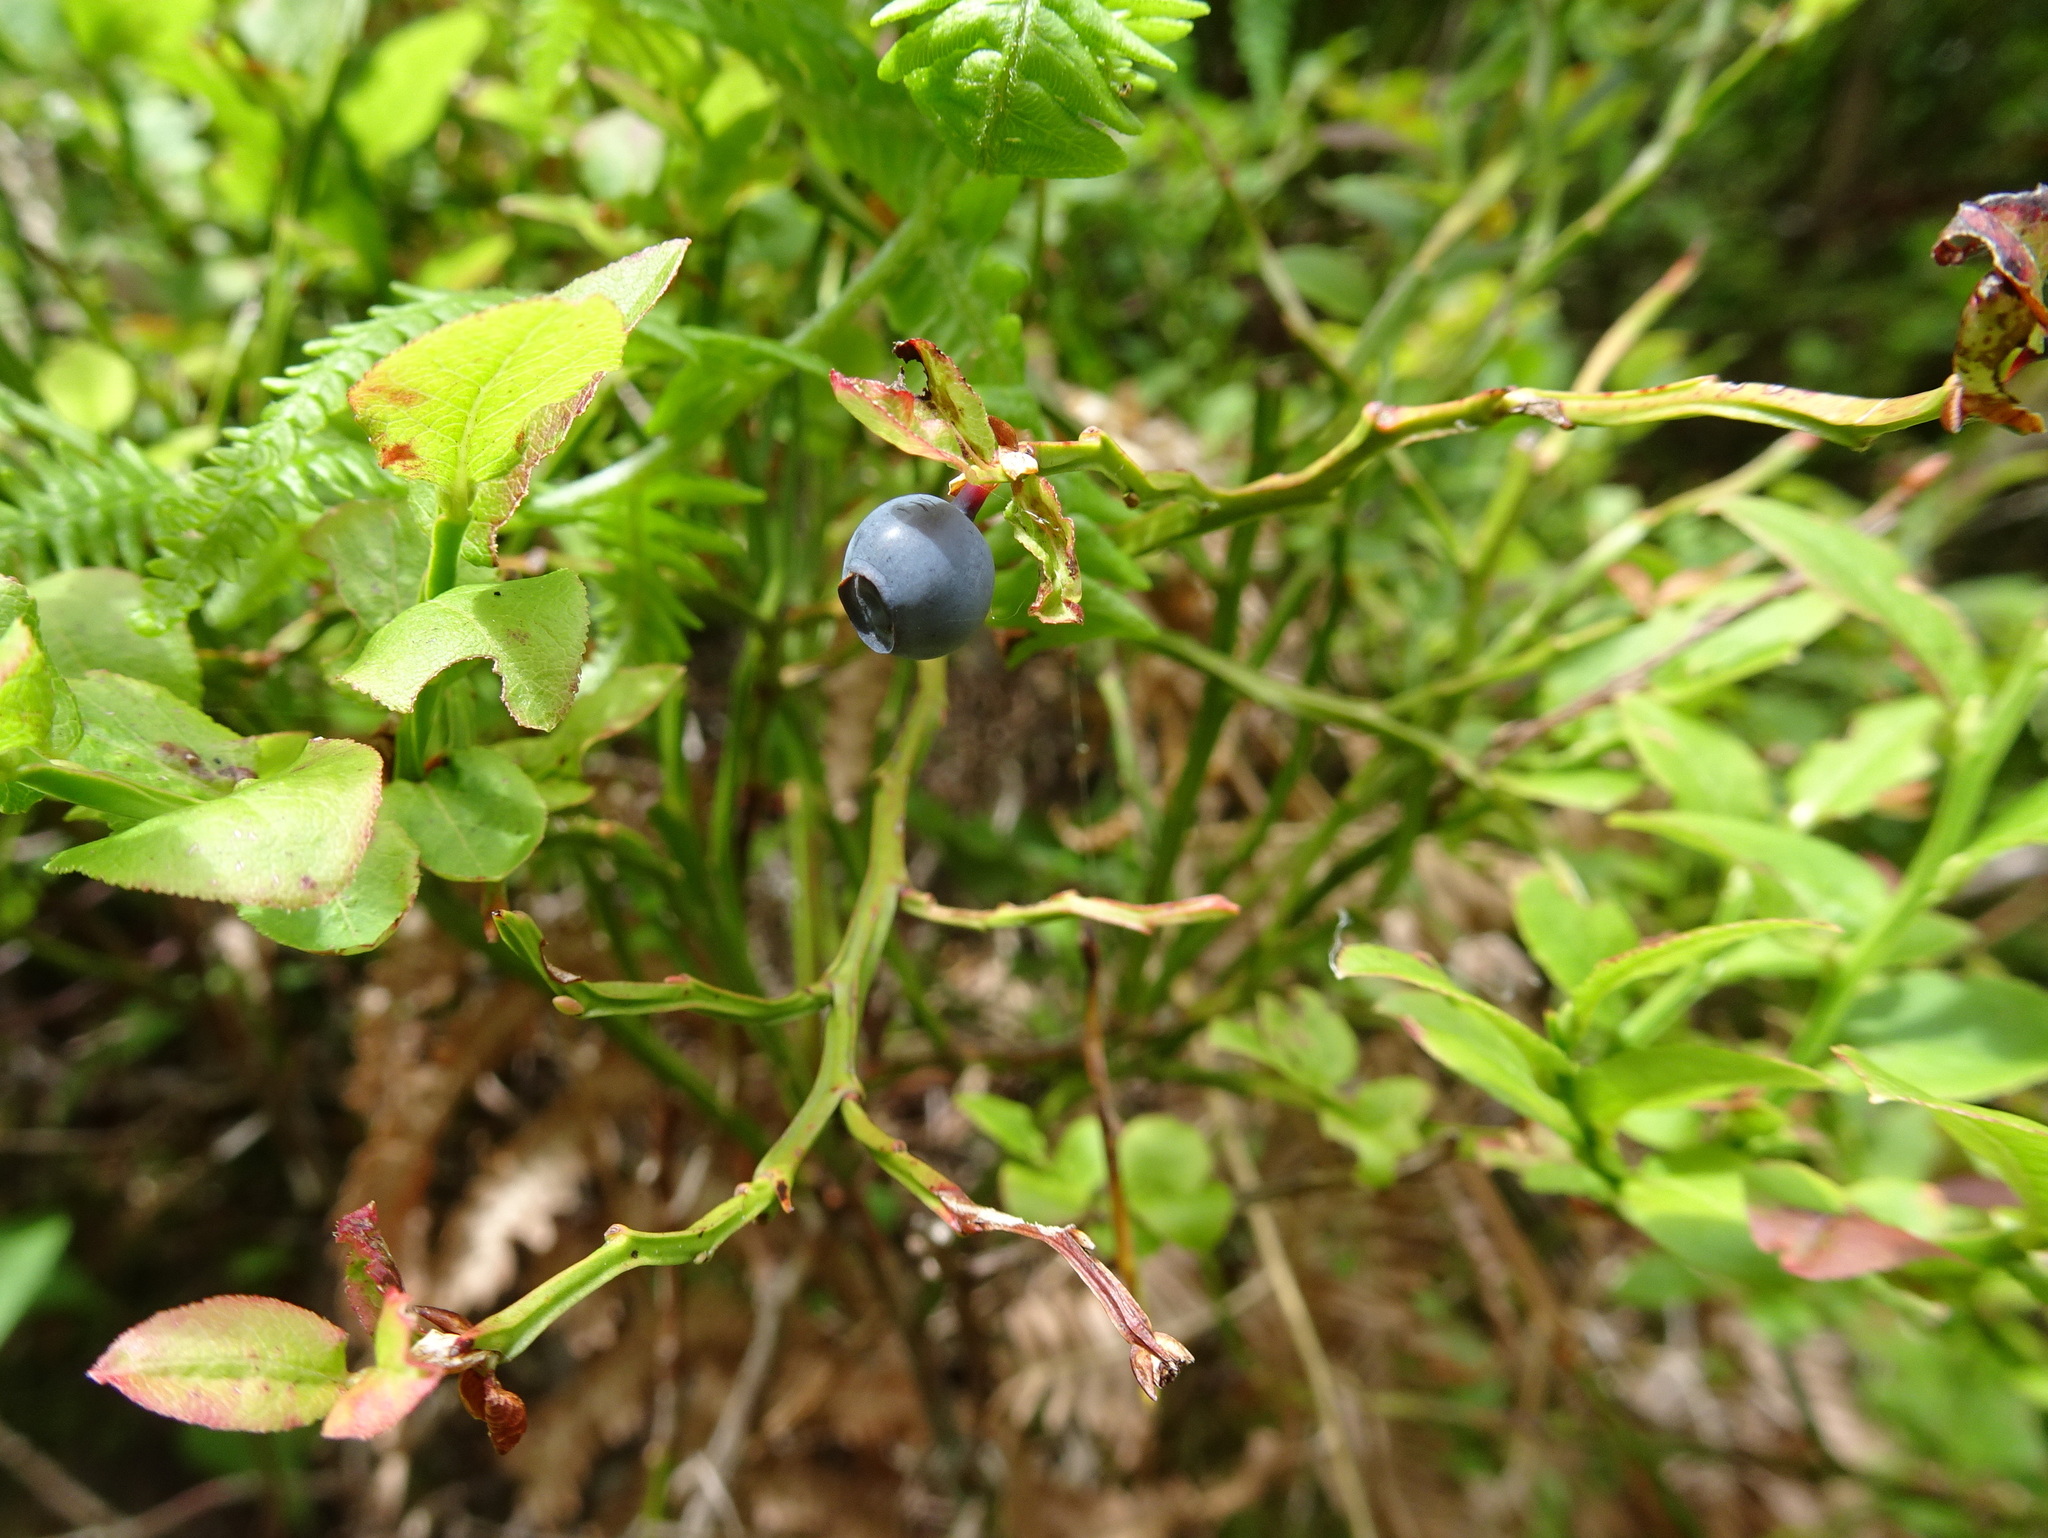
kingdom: Plantae
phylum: Tracheophyta
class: Magnoliopsida
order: Ericales
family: Ericaceae
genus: Vaccinium
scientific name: Vaccinium myrtillus
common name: Bilberry
